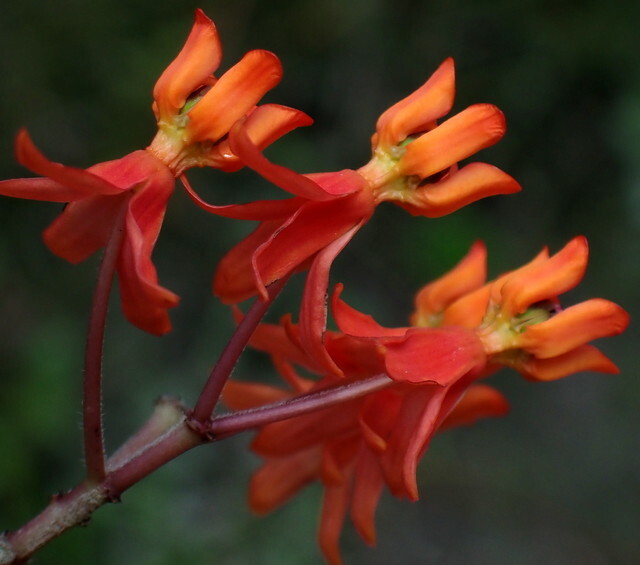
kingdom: Plantae
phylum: Tracheophyta
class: Magnoliopsida
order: Gentianales
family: Apocynaceae
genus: Asclepias
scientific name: Asclepias lanceolata
